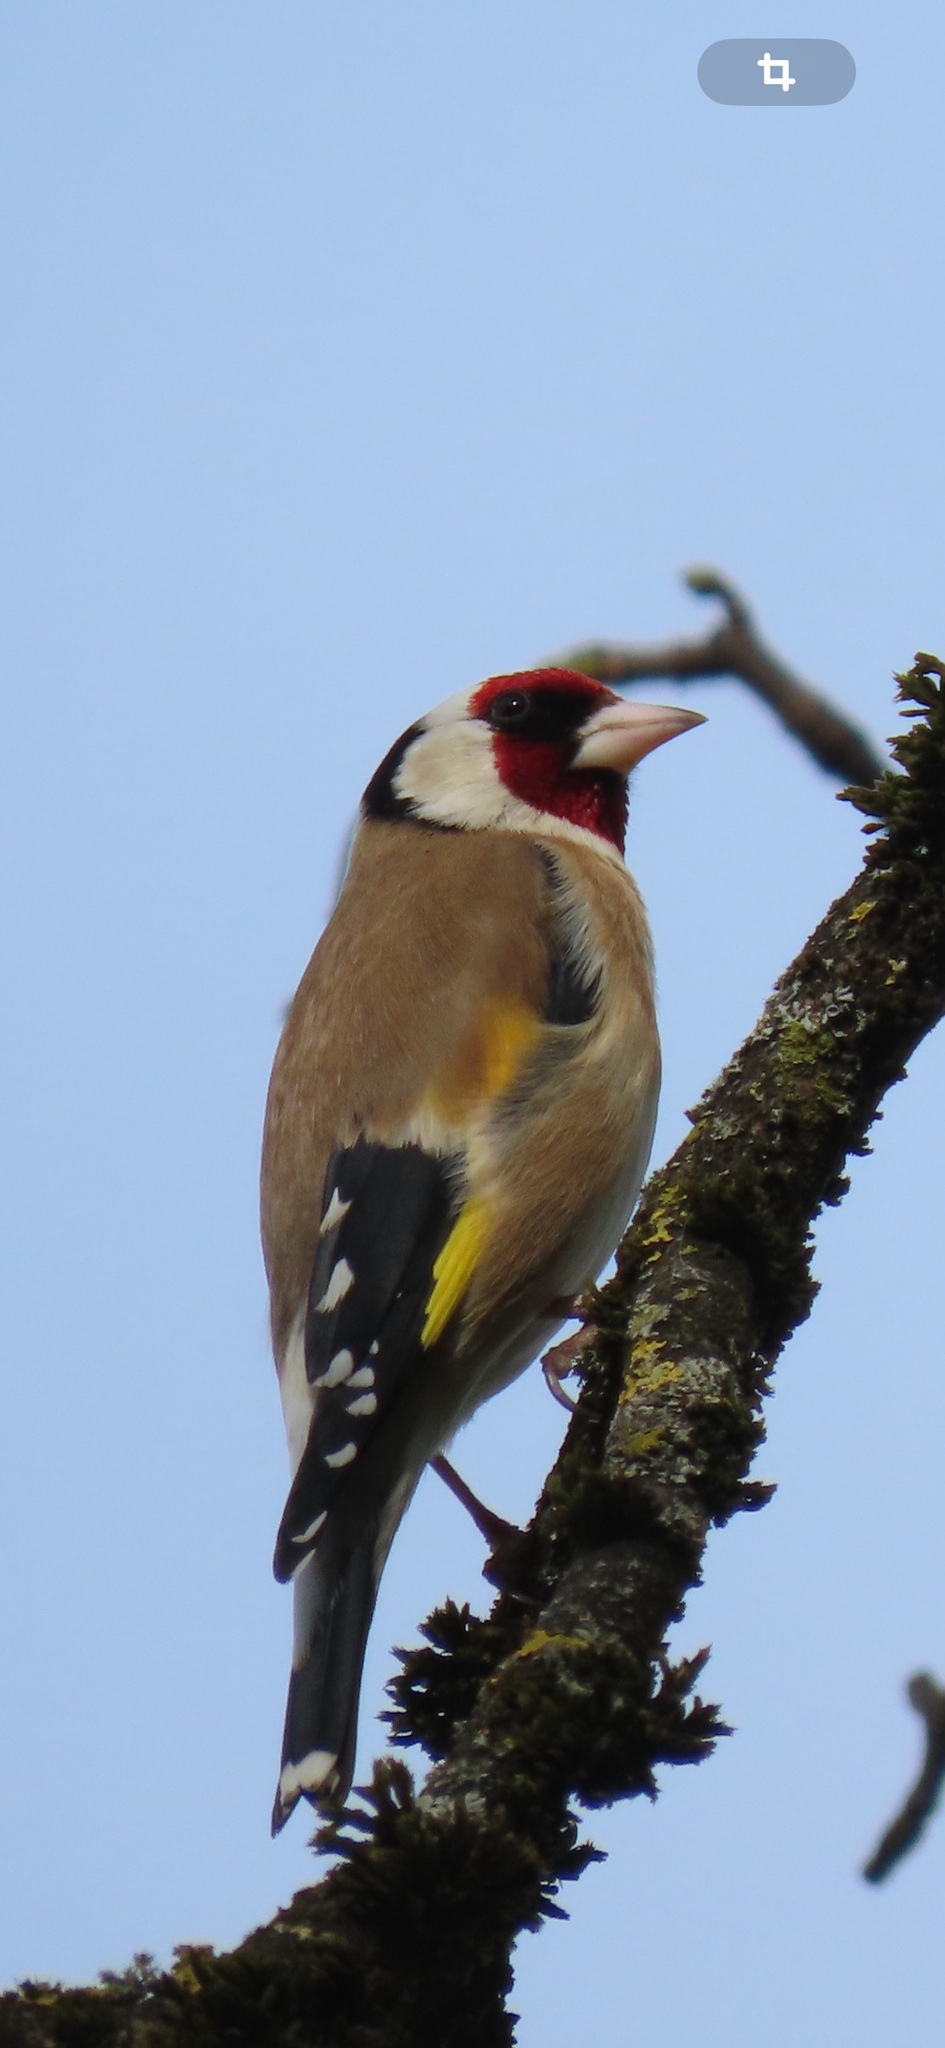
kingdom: Animalia
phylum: Chordata
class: Aves
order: Passeriformes
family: Fringillidae
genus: Carduelis
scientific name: Carduelis carduelis
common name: European goldfinch
